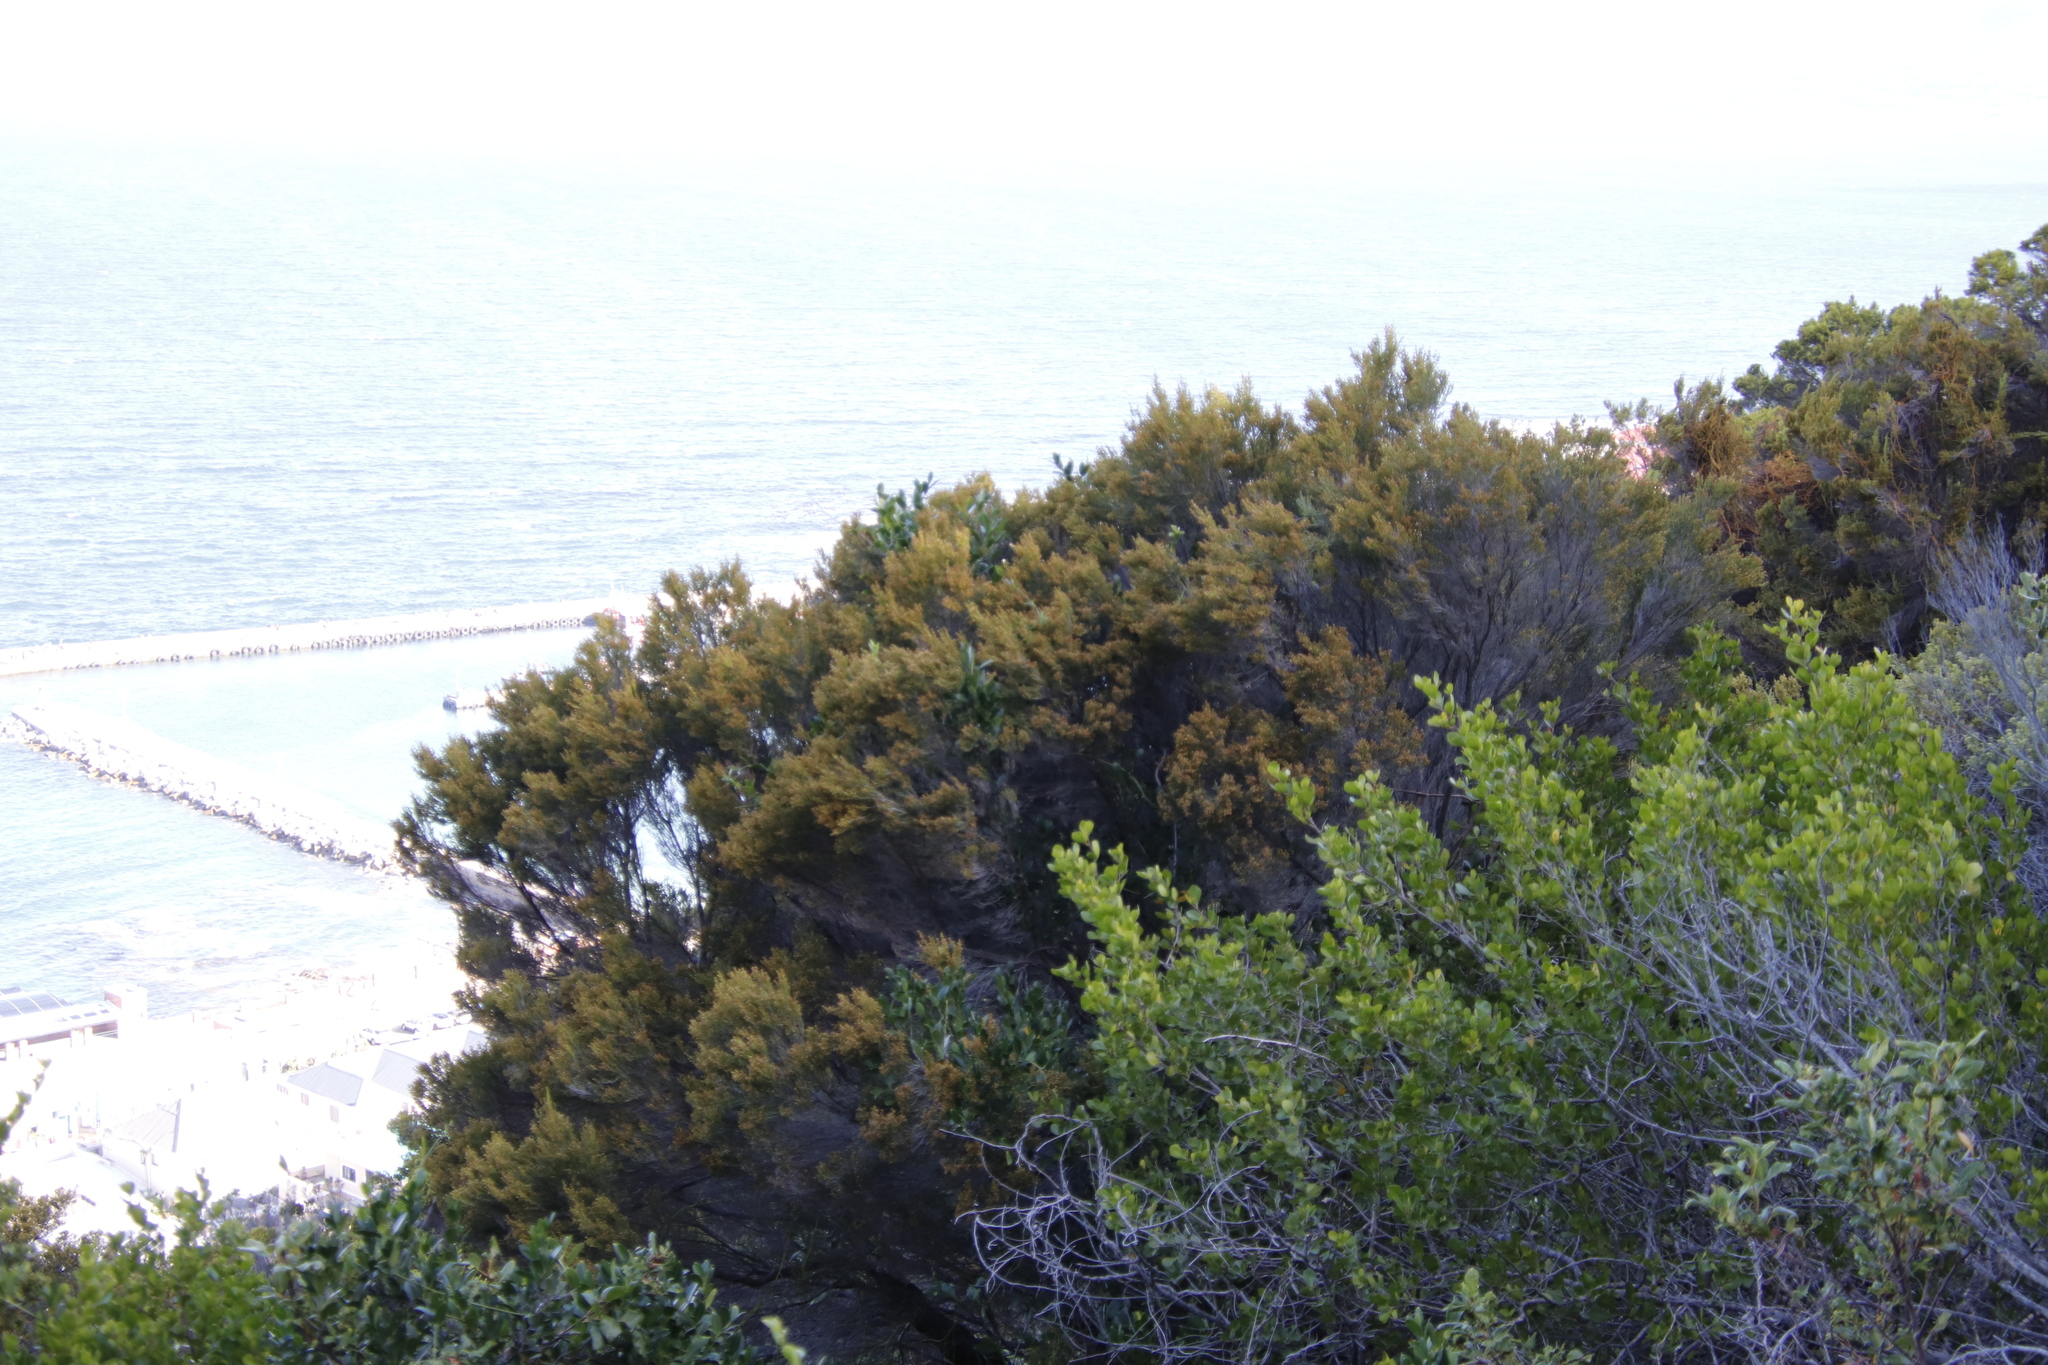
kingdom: Plantae
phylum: Tracheophyta
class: Magnoliopsida
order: Ericales
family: Ericaceae
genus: Erica
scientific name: Erica tristis
